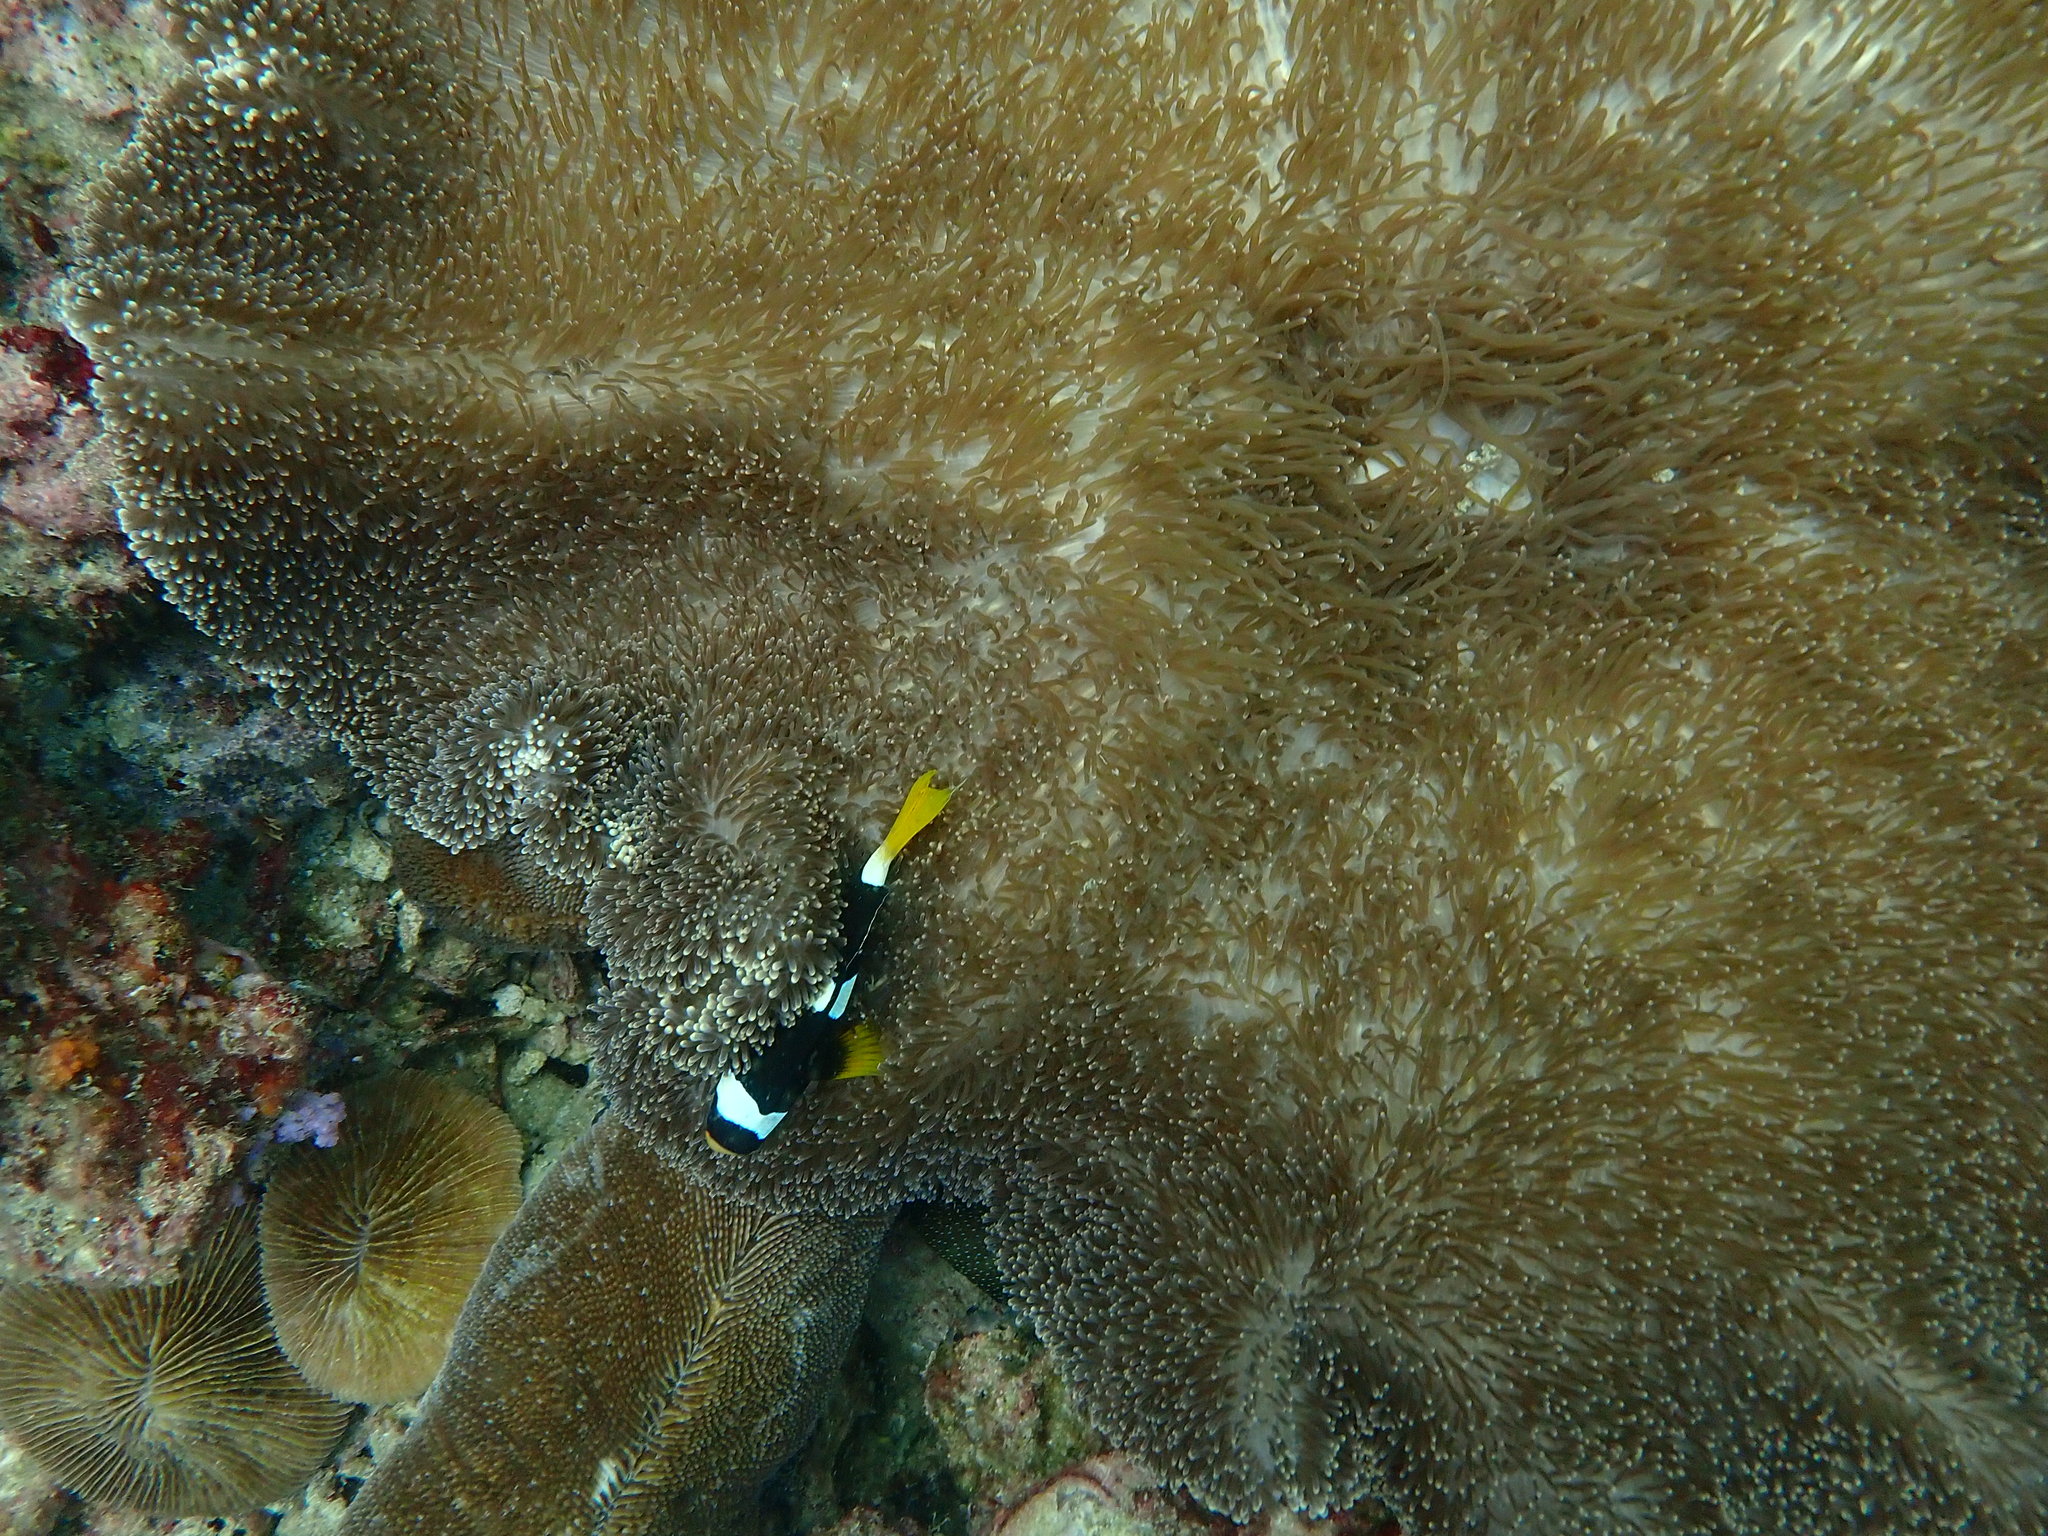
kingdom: Animalia
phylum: Chordata
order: Perciformes
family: Pomacentridae
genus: Amphiprion
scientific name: Amphiprion clarkii
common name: Clark's anemonefish
